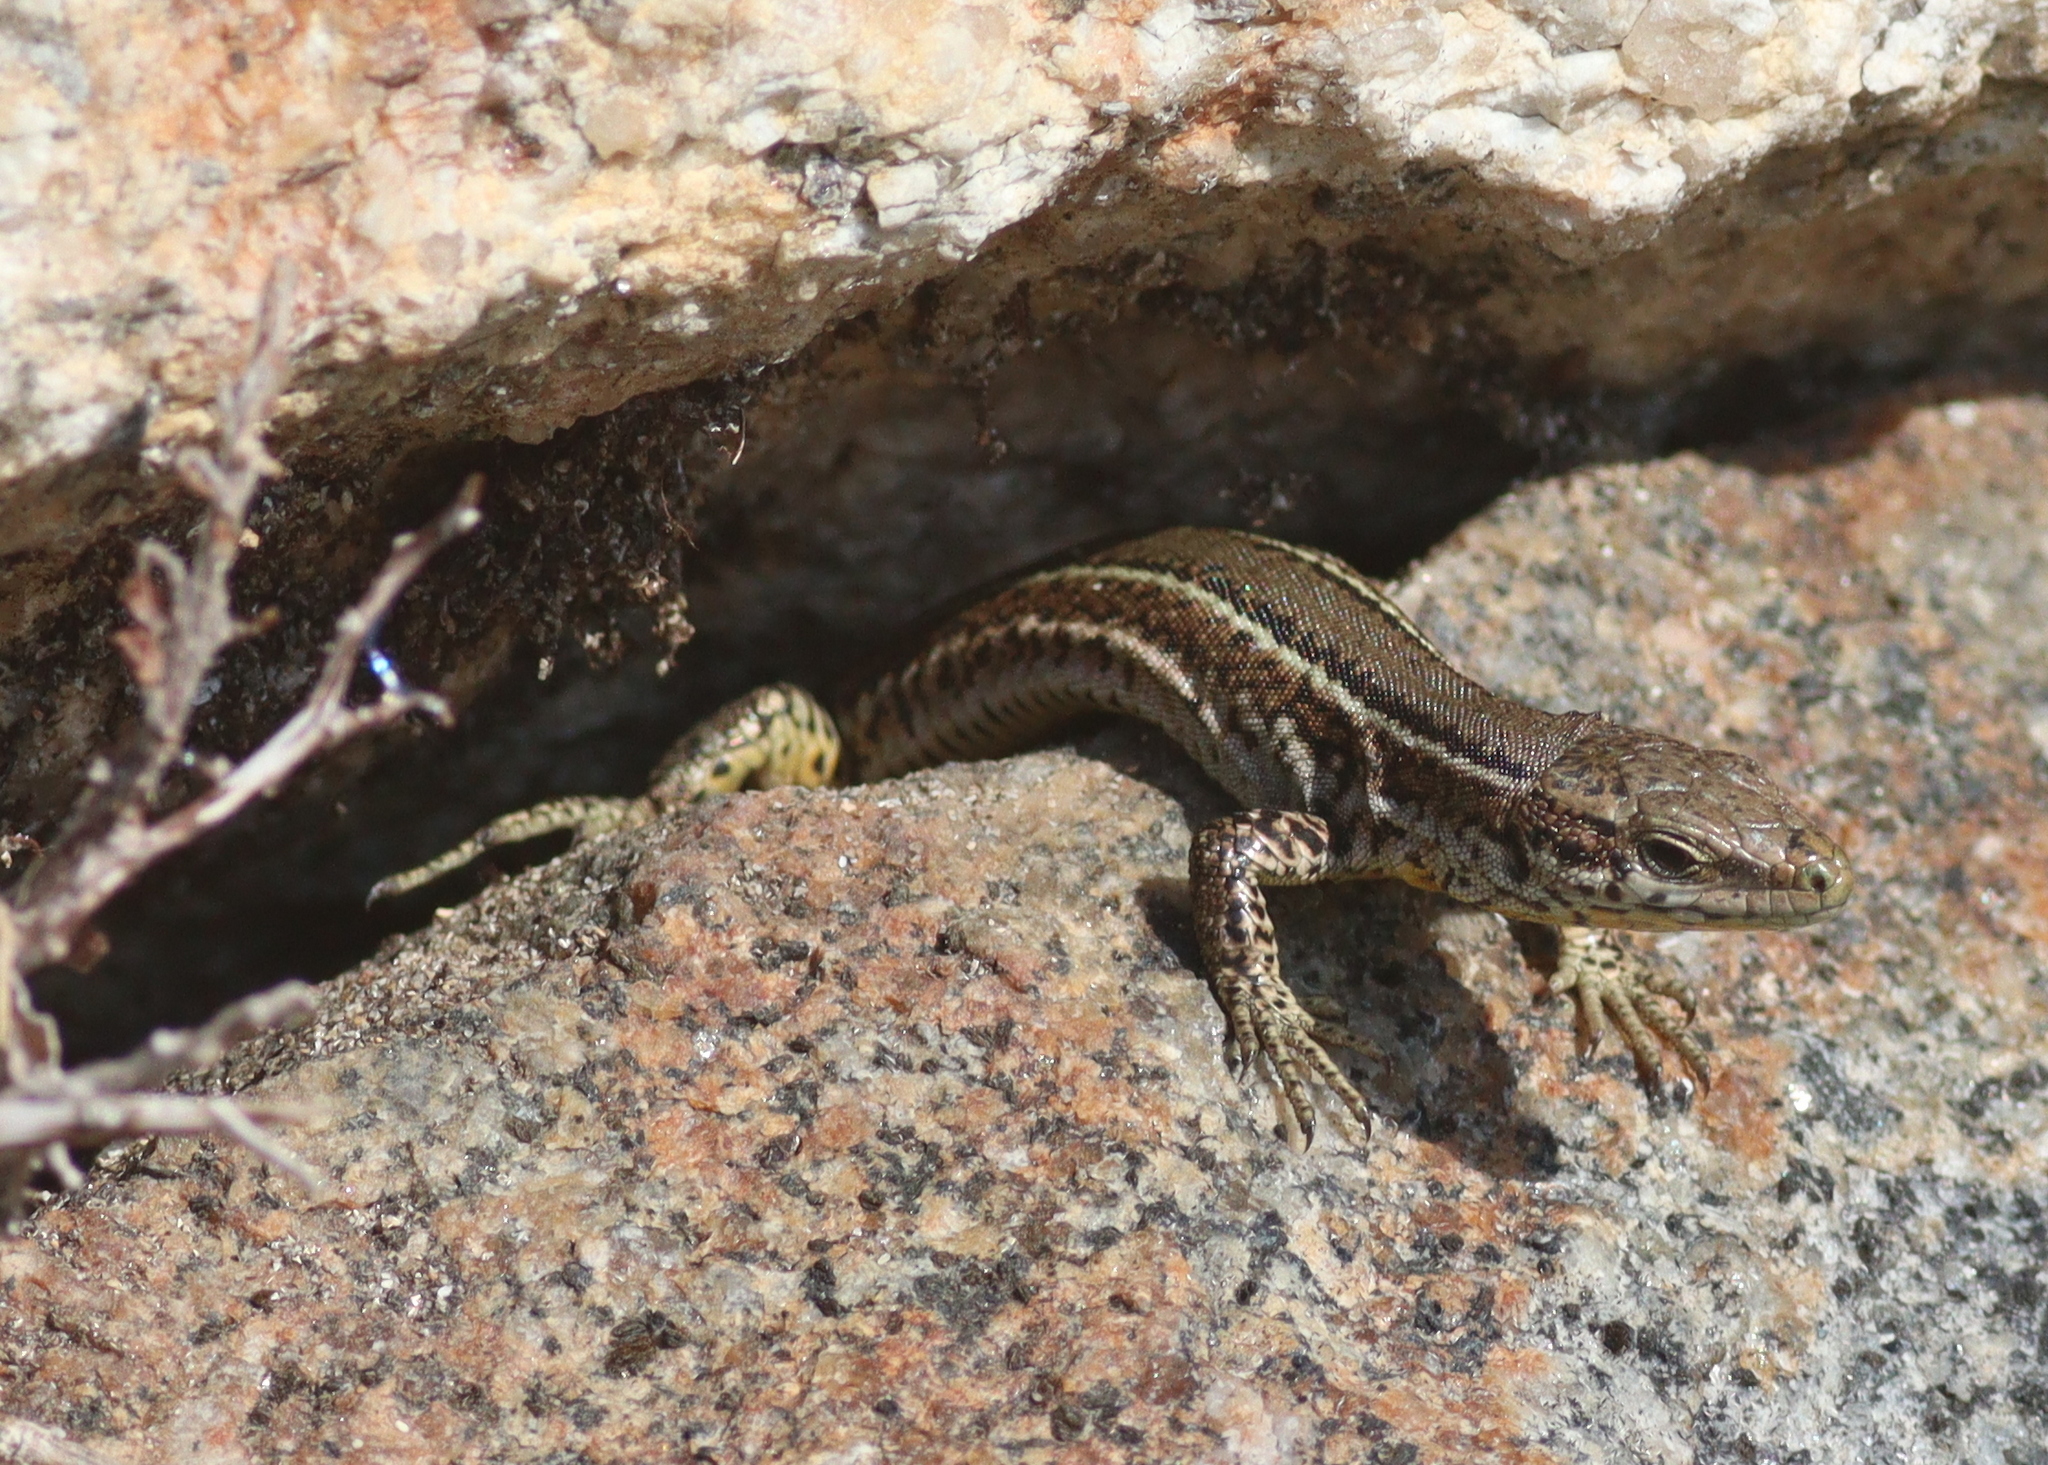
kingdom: Animalia
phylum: Chordata
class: Squamata
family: Lacertidae
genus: Podarcis
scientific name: Podarcis bocagei
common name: Bocage's wall lizard
